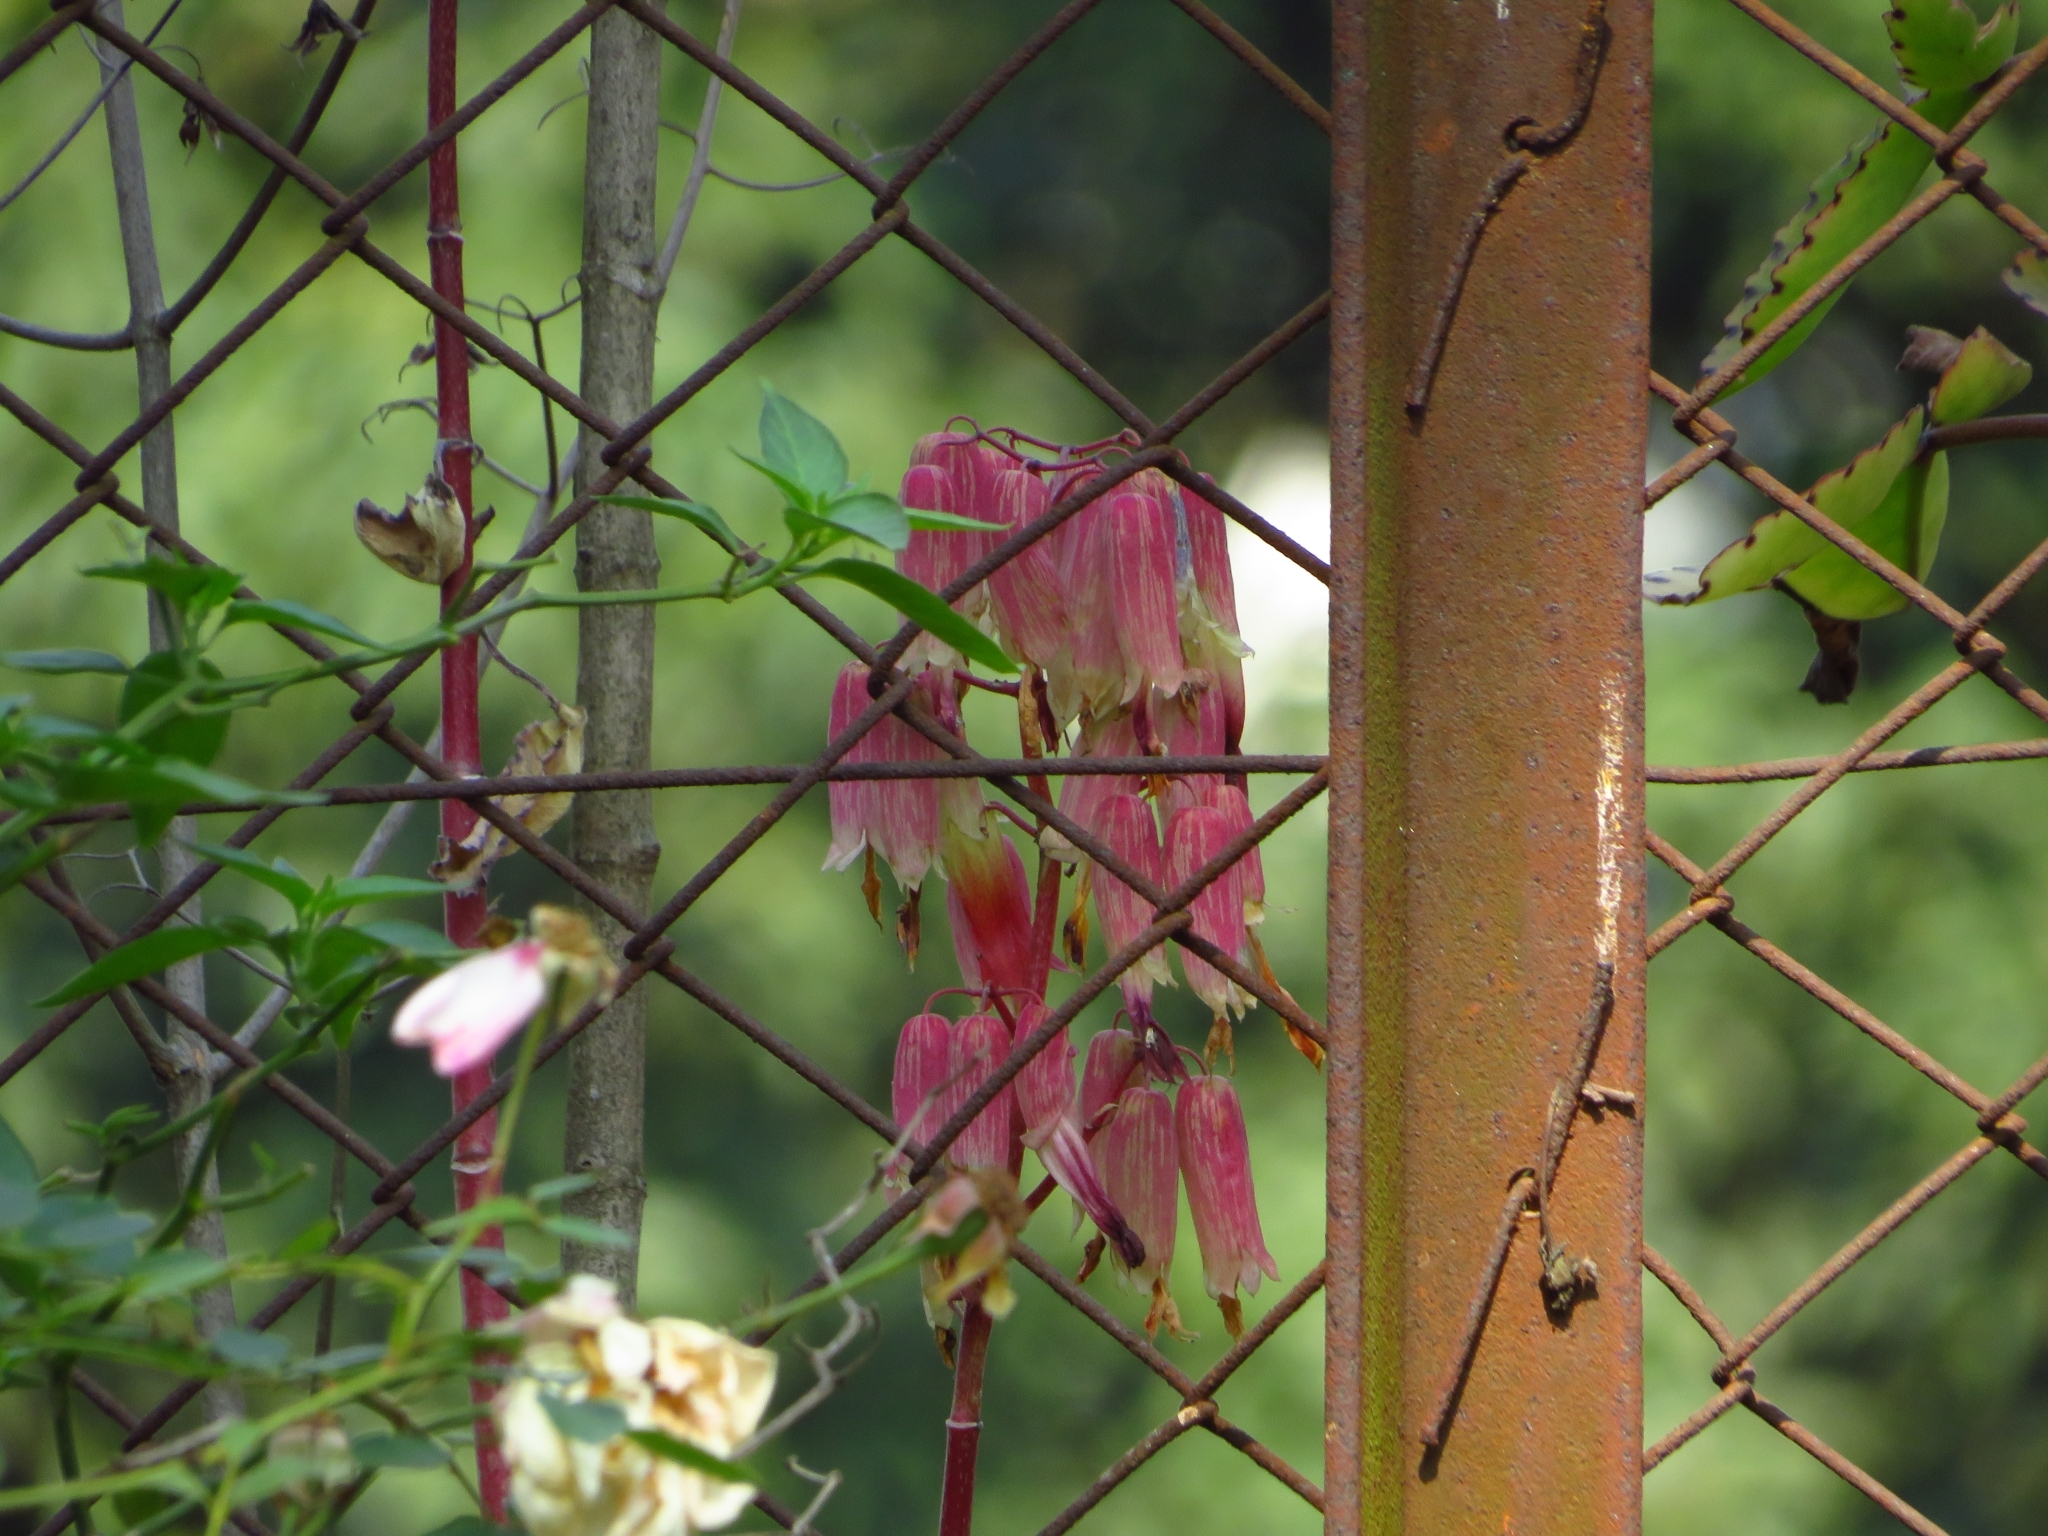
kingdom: Plantae
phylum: Tracheophyta
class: Magnoliopsida
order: Saxifragales
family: Crassulaceae
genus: Kalanchoe
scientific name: Kalanchoe pinnata
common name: Cathedral bells
